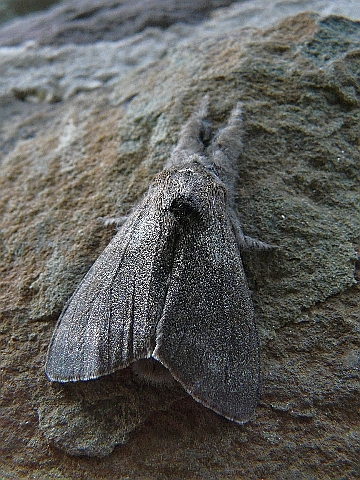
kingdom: Animalia
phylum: Arthropoda
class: Insecta
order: Lepidoptera
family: Erebidae
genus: Calliteara
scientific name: Calliteara pudibunda
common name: Pale tussock
